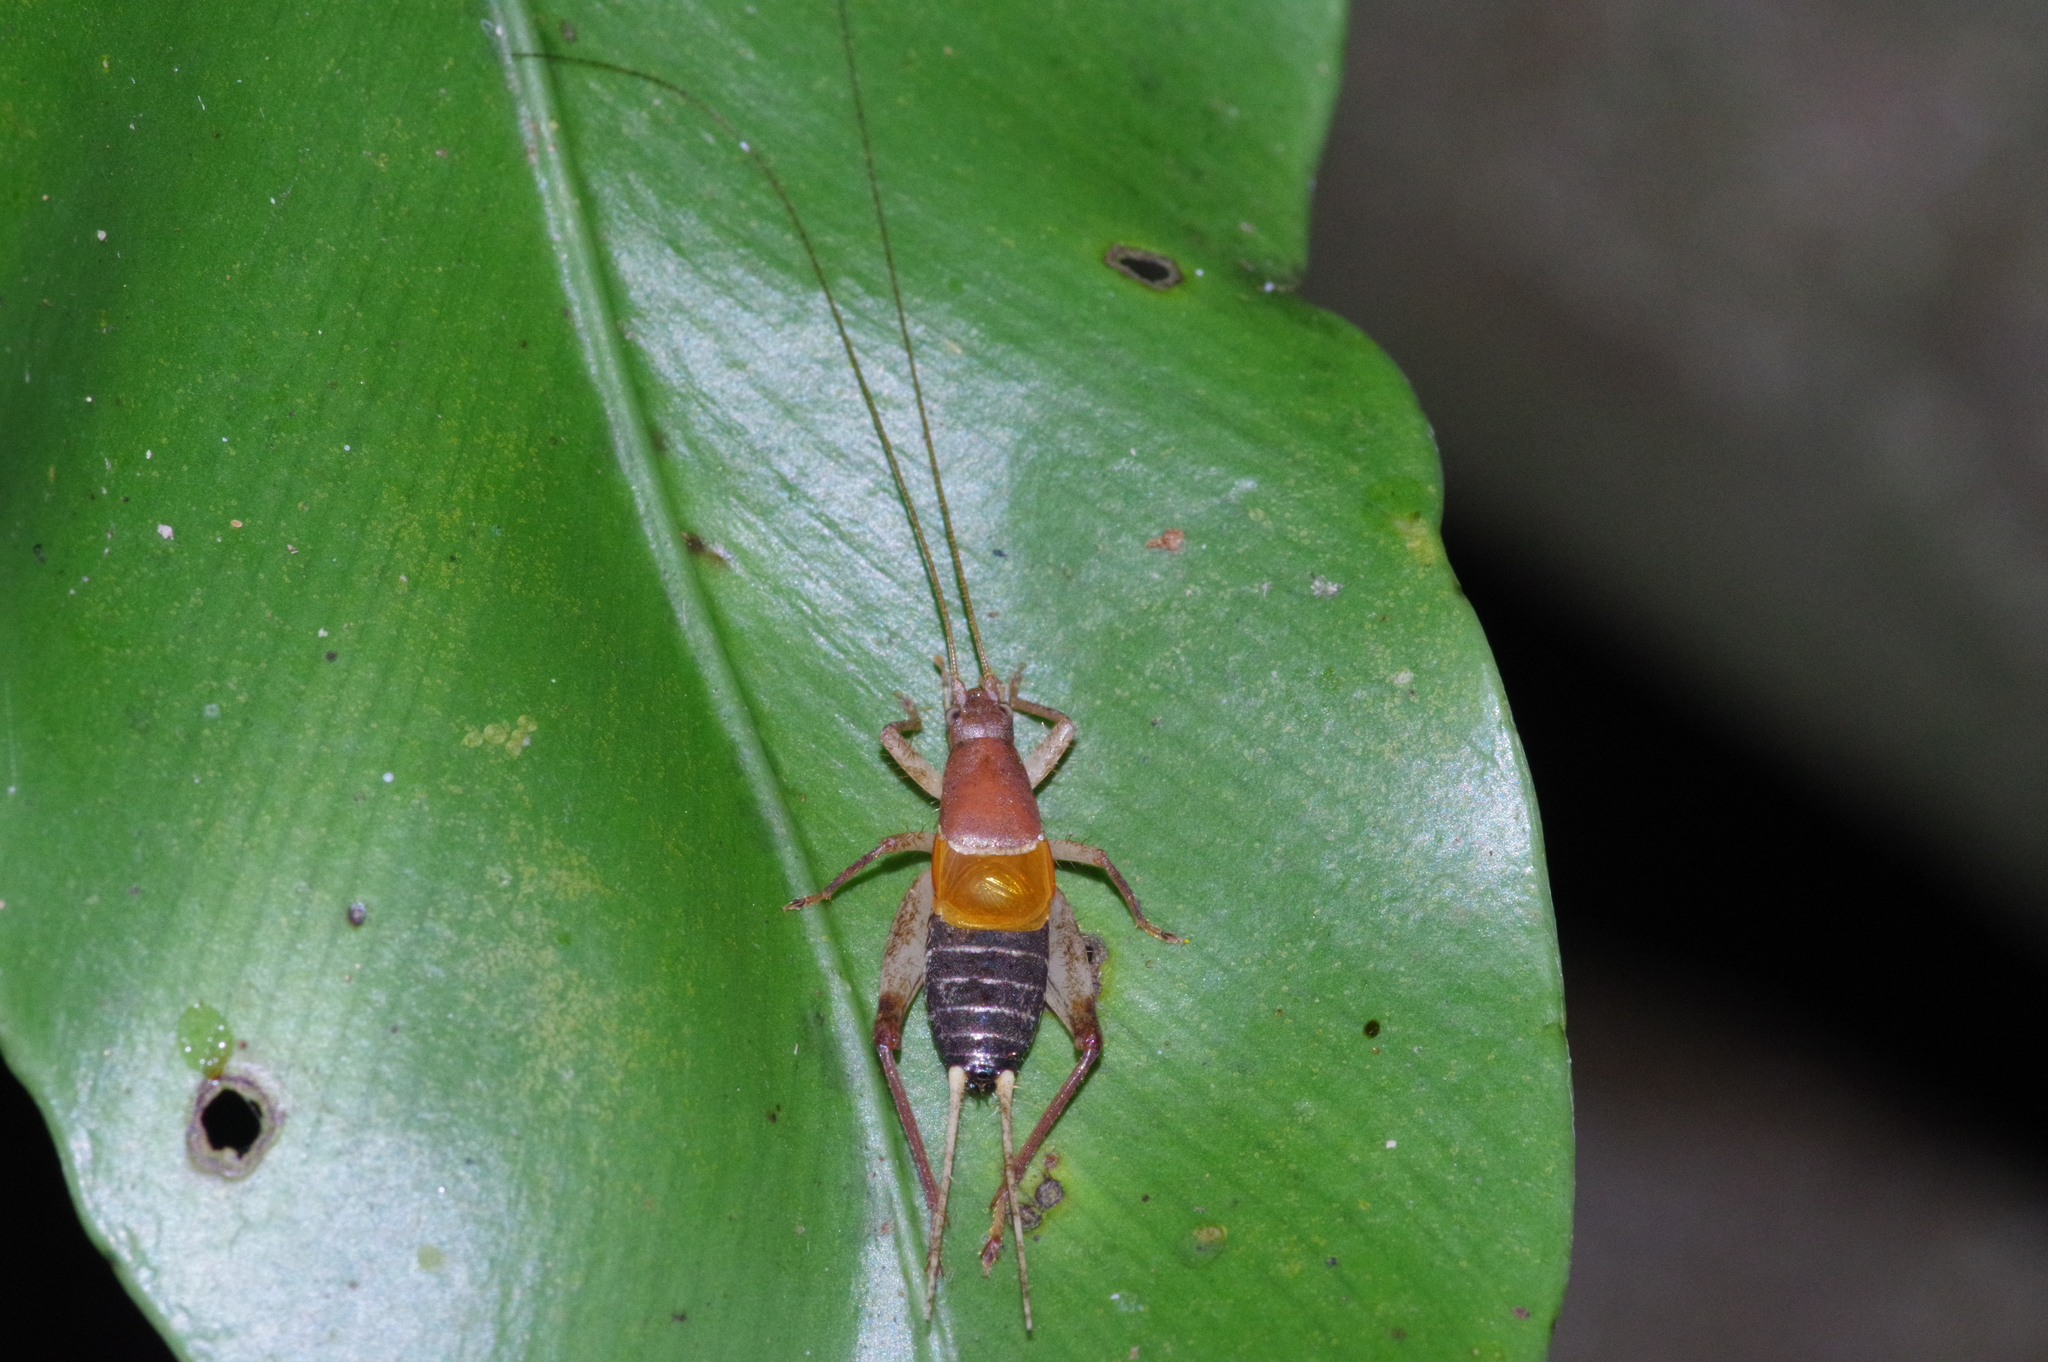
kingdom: Animalia
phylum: Arthropoda
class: Insecta
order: Orthoptera
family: Mogoplistidae
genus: Ornebius
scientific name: Ornebius longipennis
